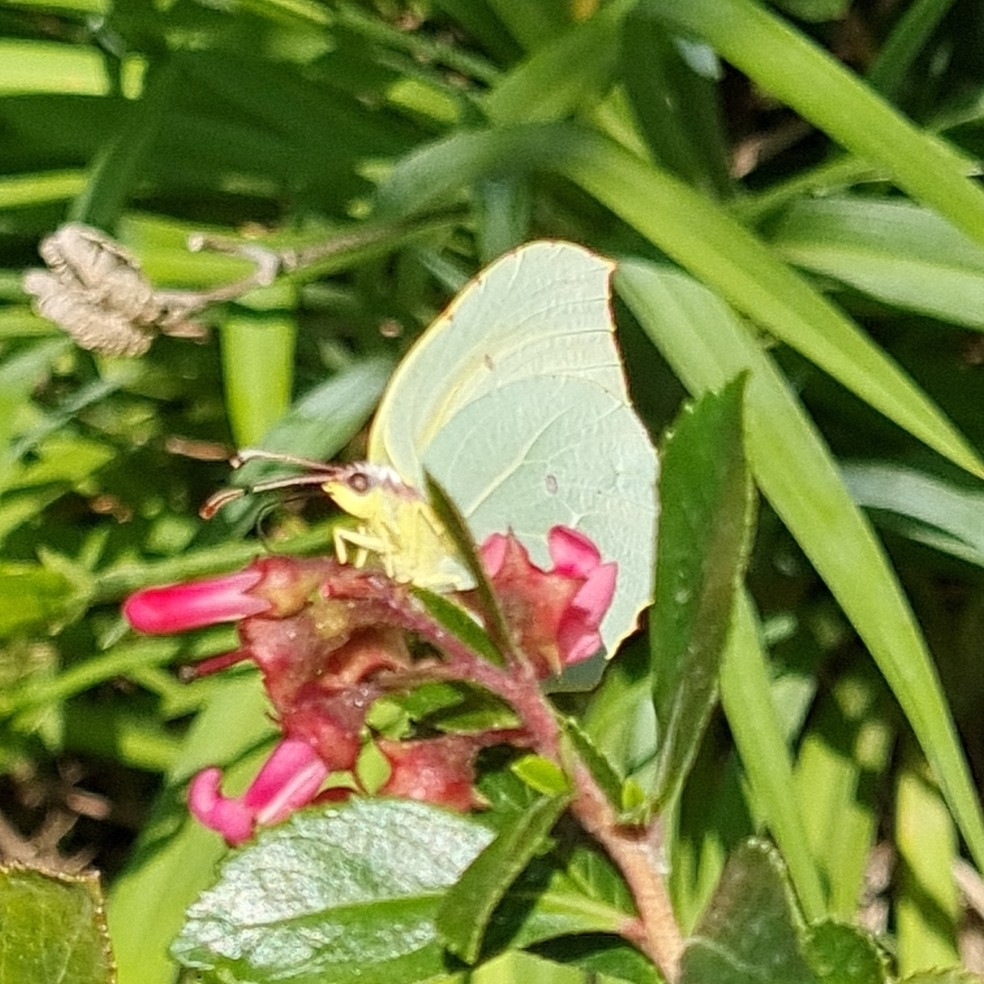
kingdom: Animalia
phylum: Arthropoda
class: Insecta
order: Lepidoptera
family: Pieridae
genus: Gonepteryx
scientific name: Gonepteryx cleopatra
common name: Cleopatra
